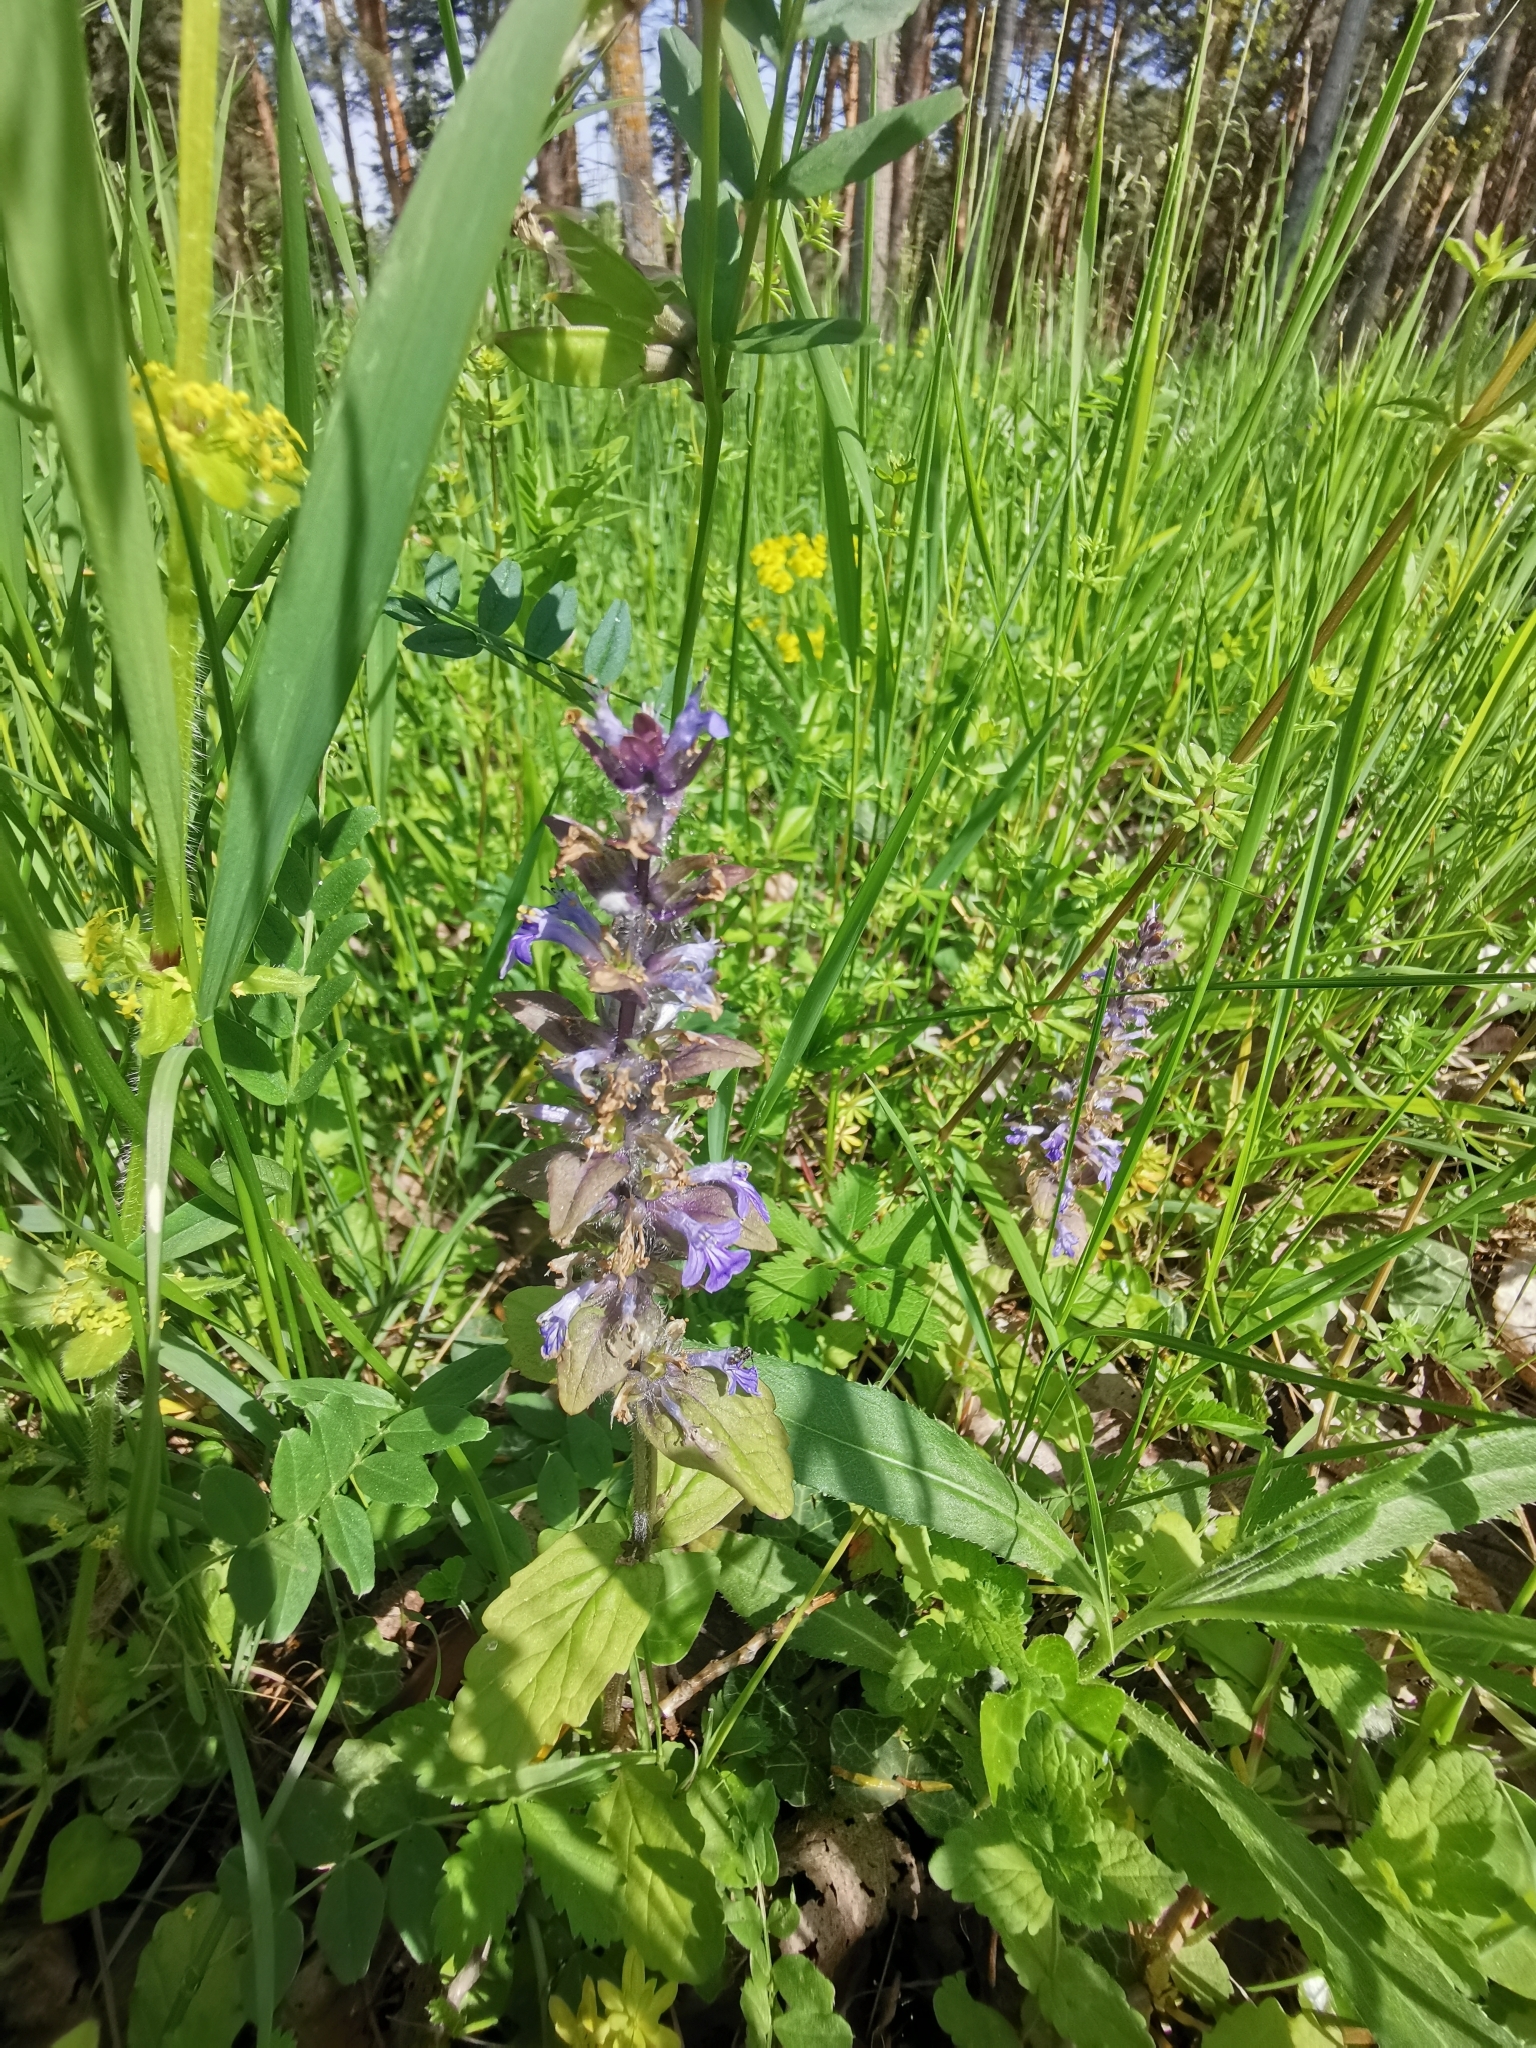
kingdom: Plantae
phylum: Tracheophyta
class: Magnoliopsida
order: Lamiales
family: Lamiaceae
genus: Ajuga
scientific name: Ajuga reptans
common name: Bugle
